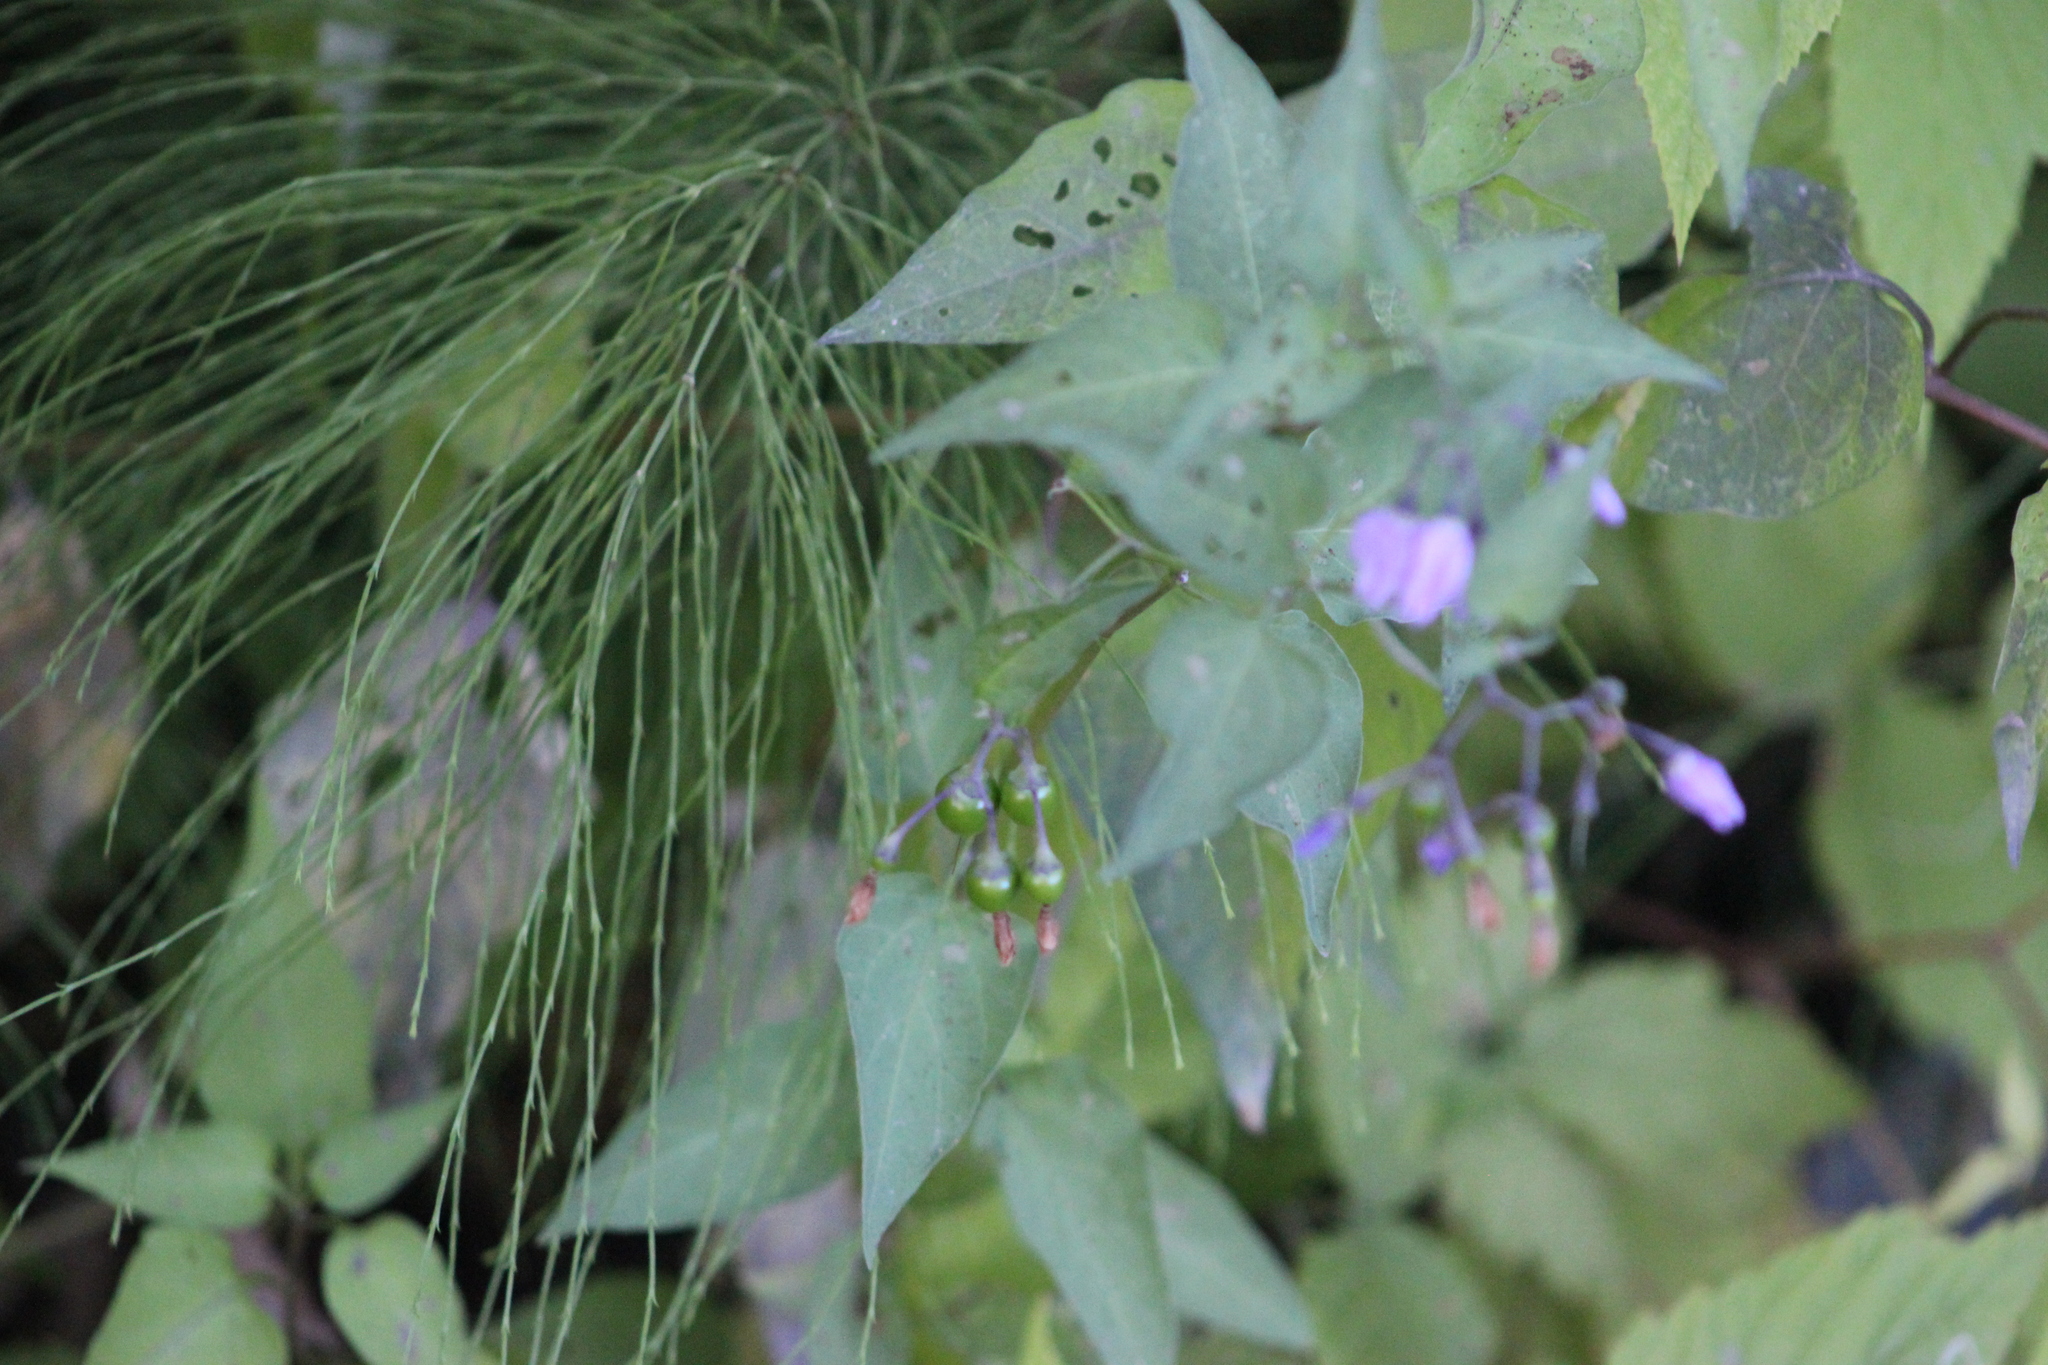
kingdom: Plantae
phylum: Tracheophyta
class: Magnoliopsida
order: Solanales
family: Solanaceae
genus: Solanum
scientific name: Solanum dulcamara
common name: Climbing nightshade
